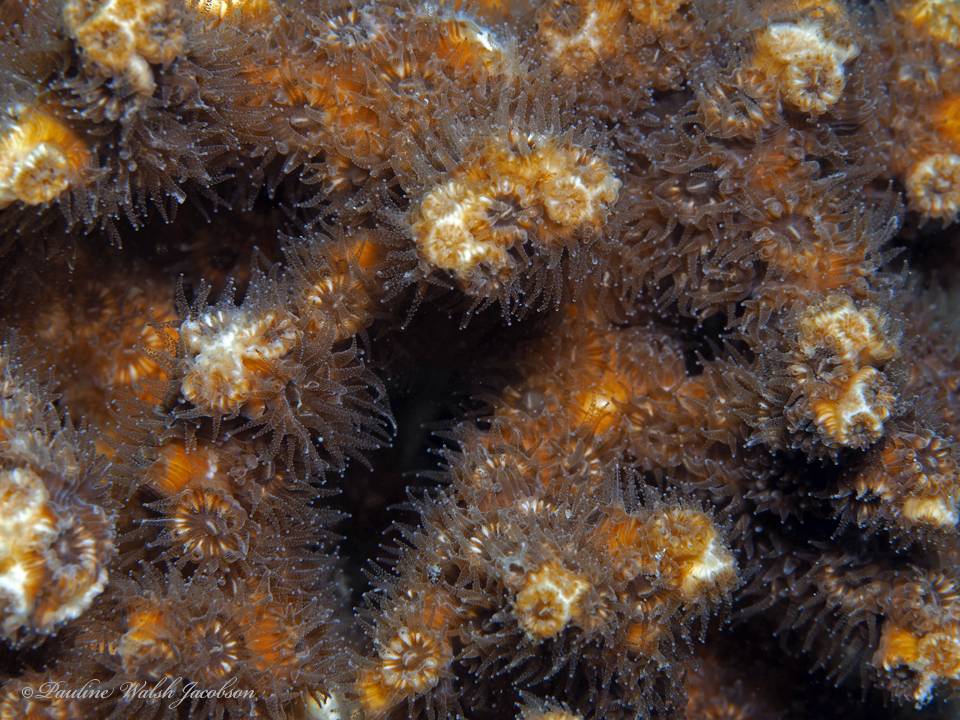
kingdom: Animalia
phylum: Cnidaria
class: Anthozoa
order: Scleractinia
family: Cladocoridae
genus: Cladocora
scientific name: Cladocora arbuscula
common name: Tube coral
